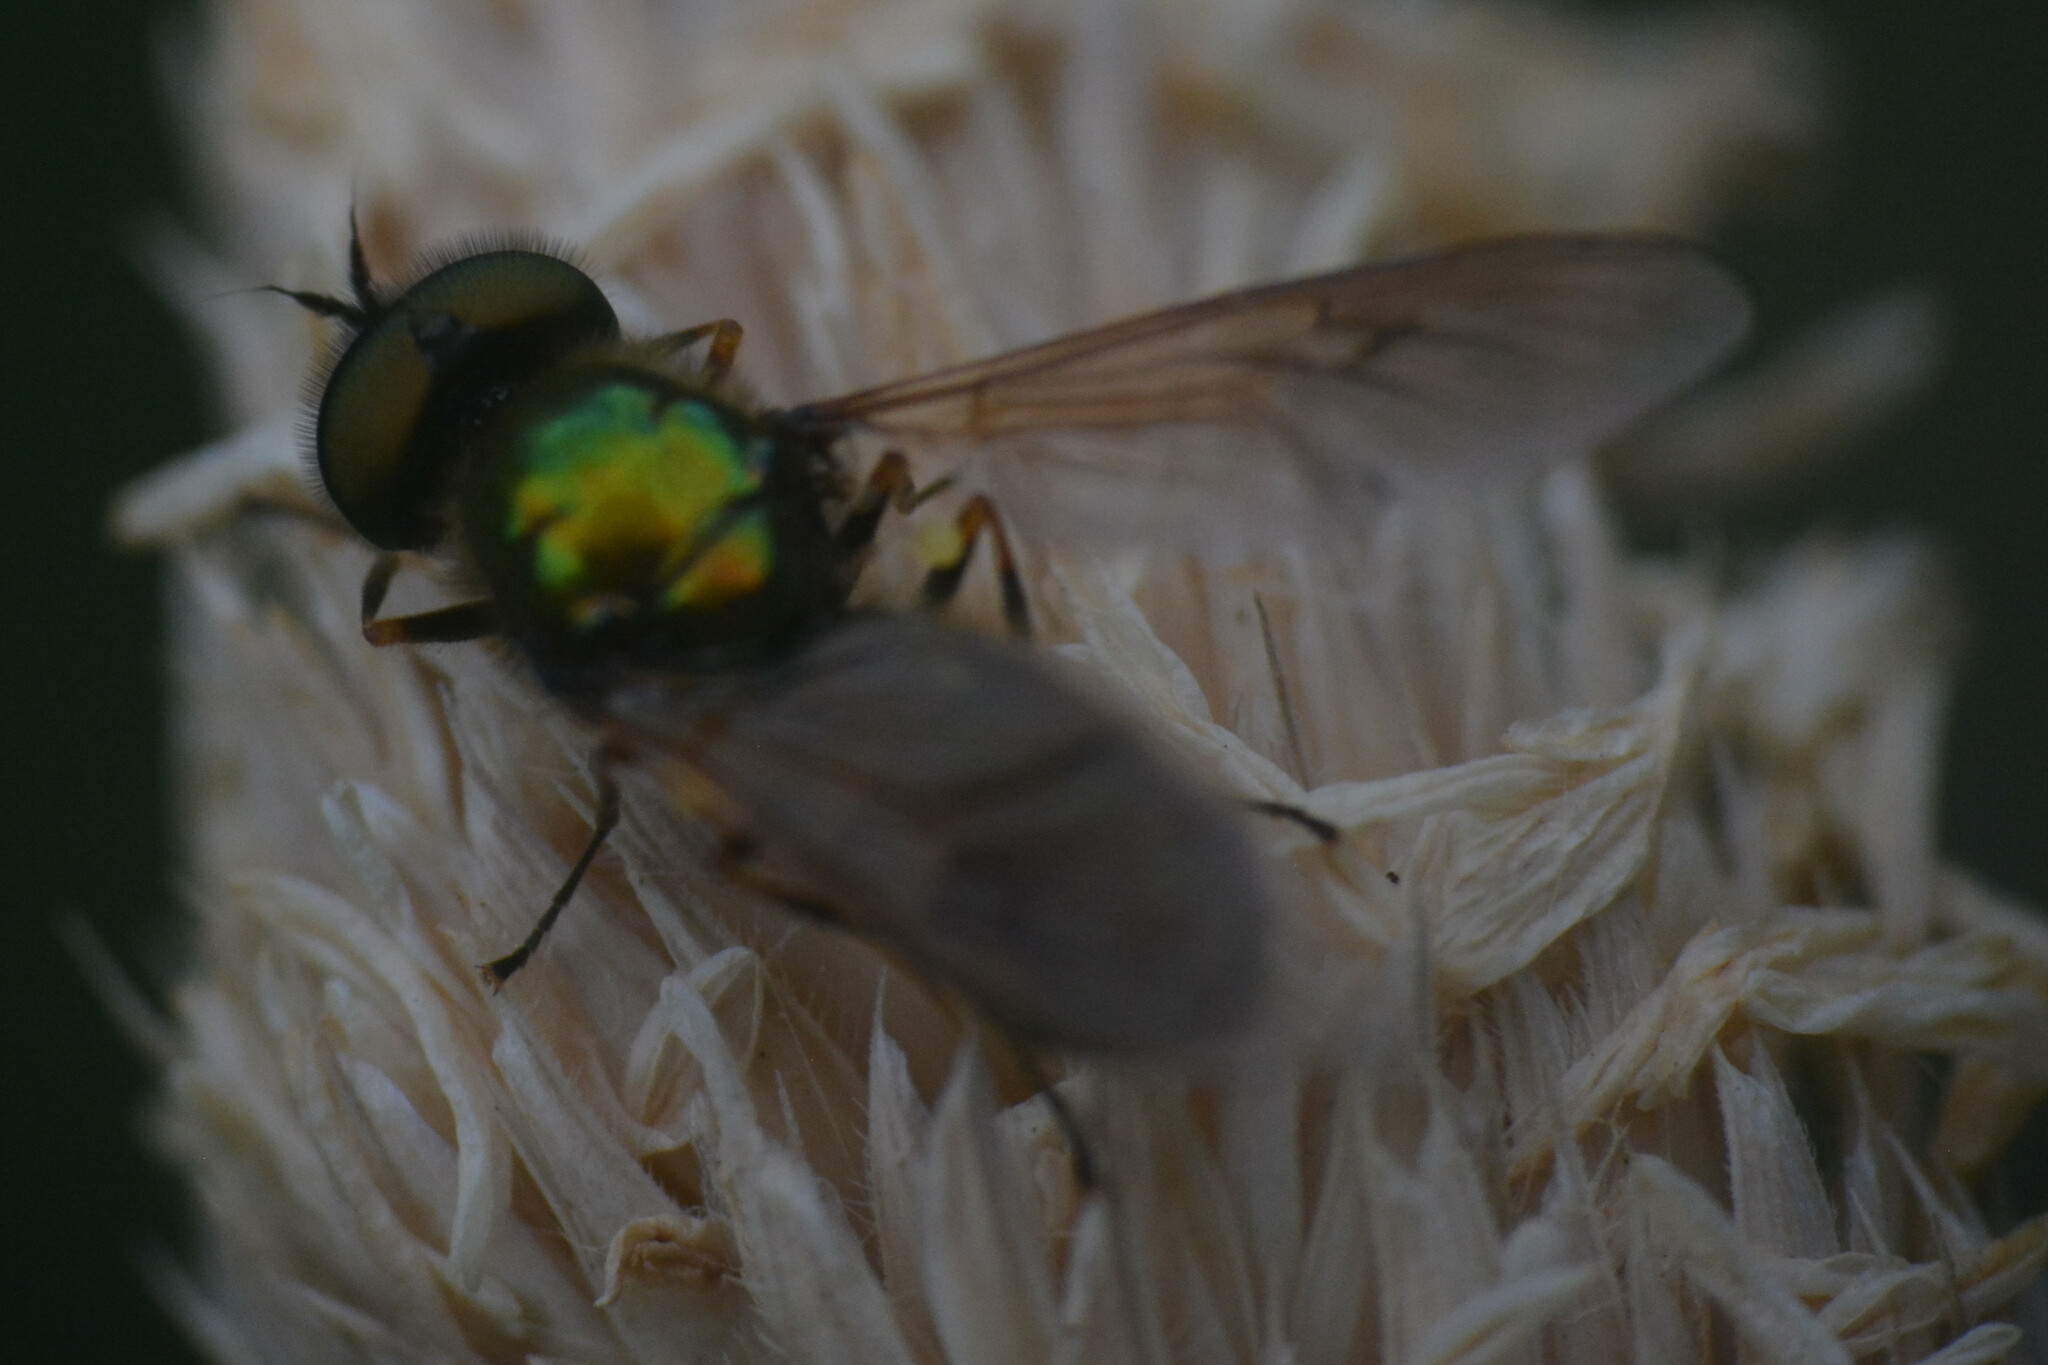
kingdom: Animalia
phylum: Arthropoda
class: Insecta
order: Diptera
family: Stratiomyidae
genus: Chloromyia
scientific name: Chloromyia formosa
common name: Soldier fly
